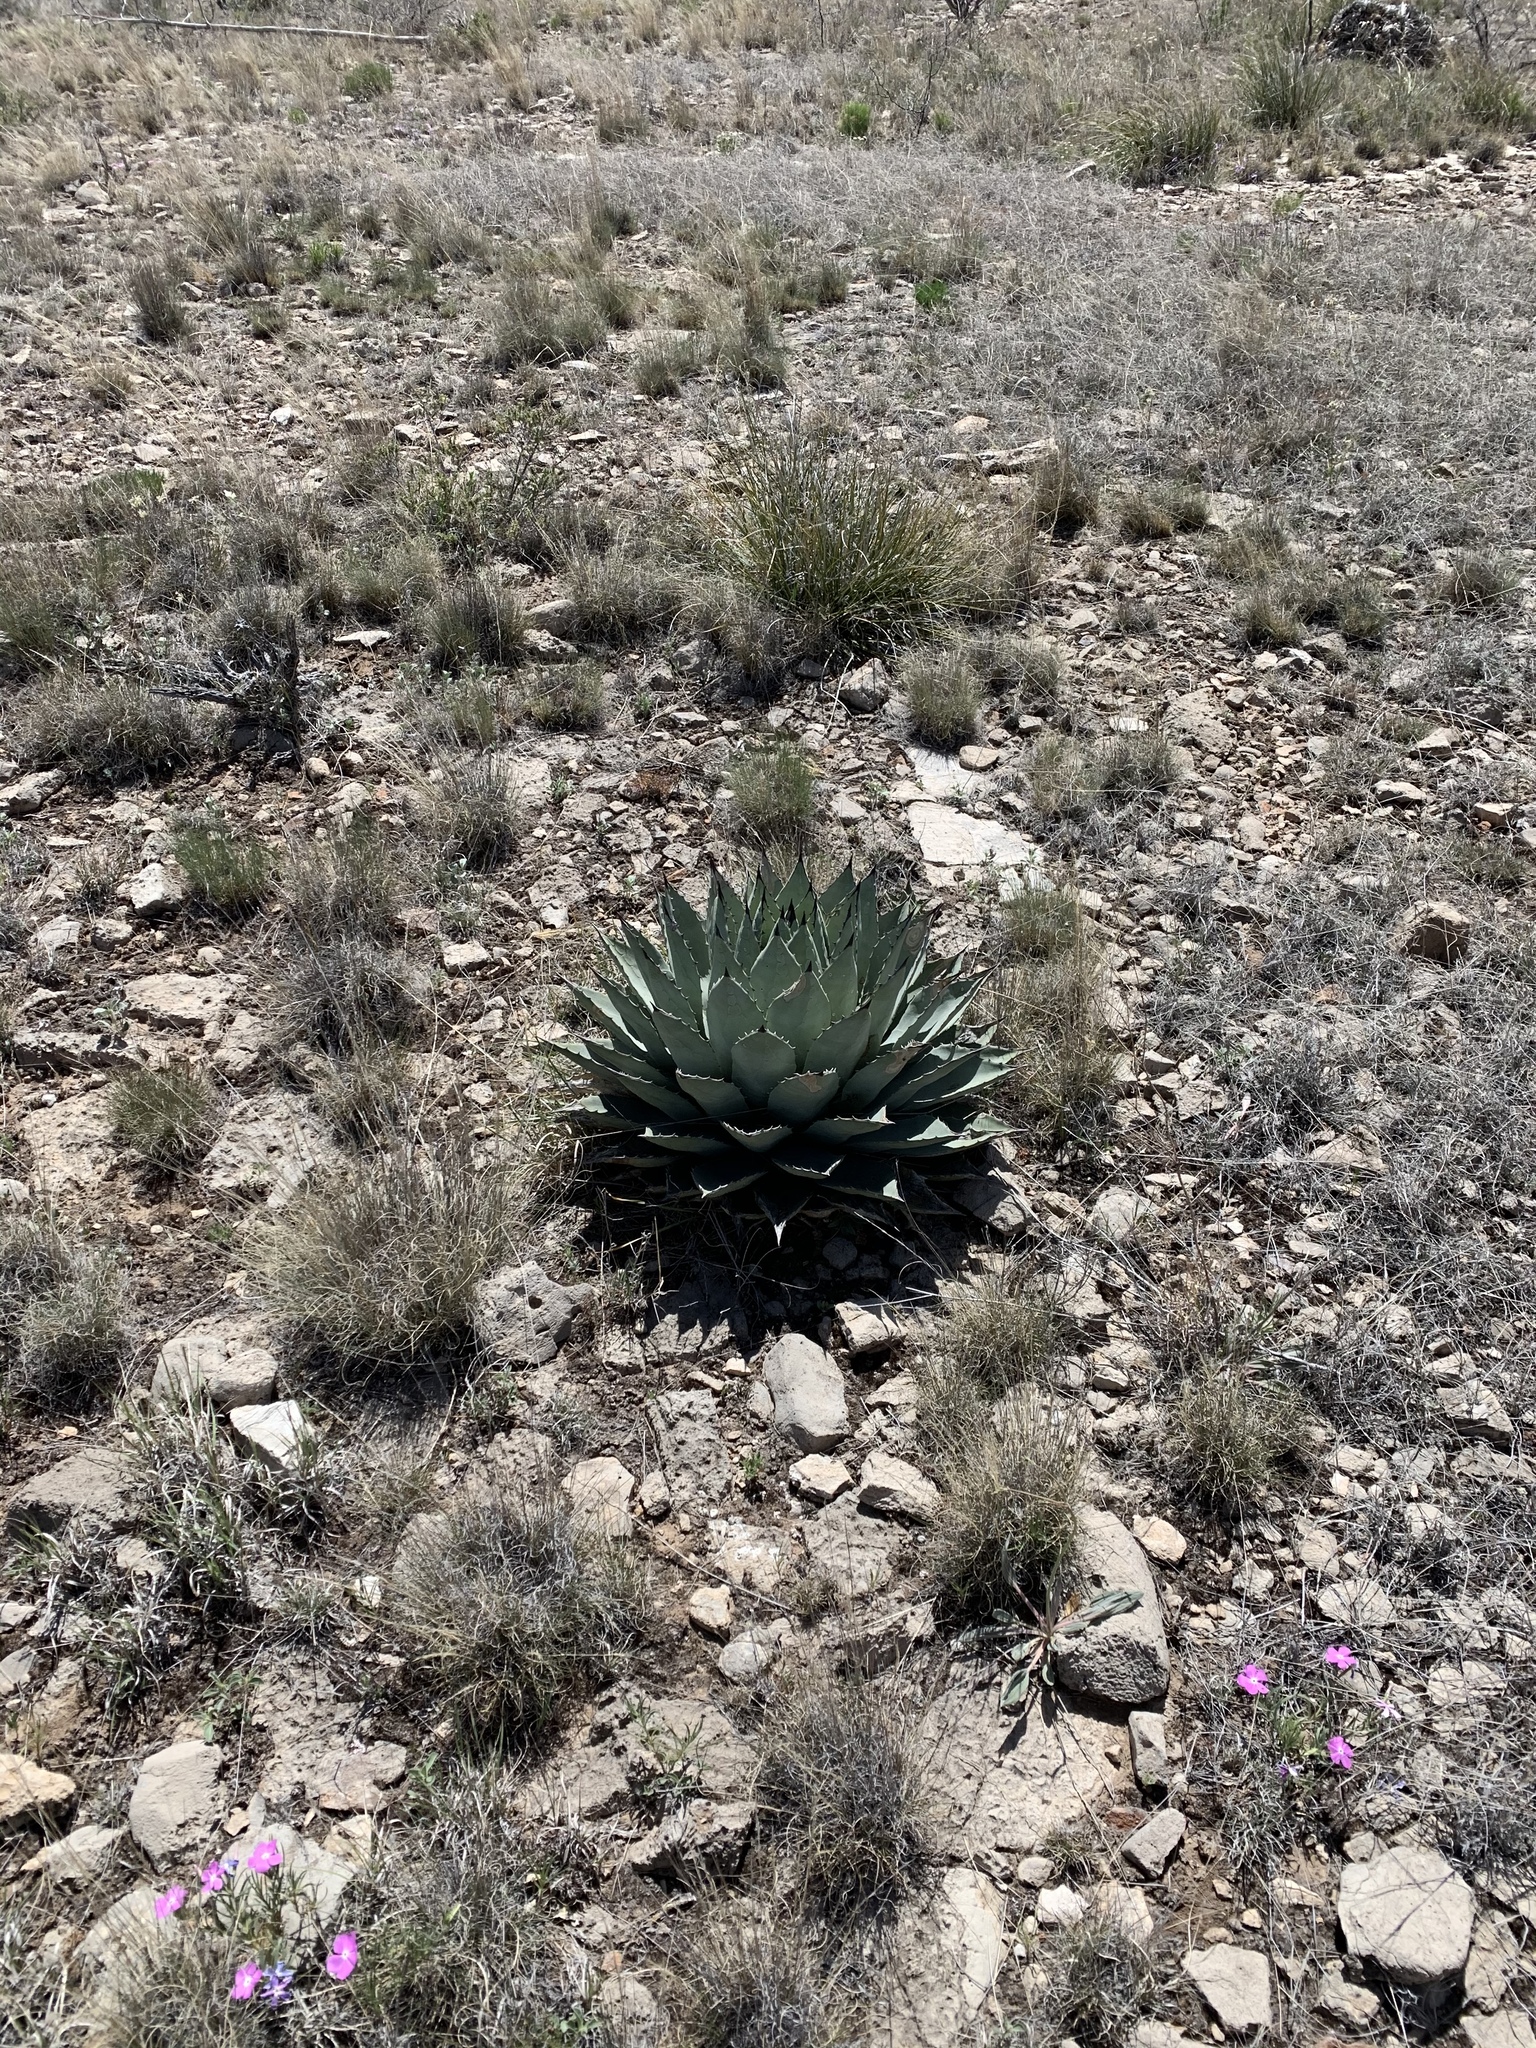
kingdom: Plantae
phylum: Tracheophyta
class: Liliopsida
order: Asparagales
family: Asparagaceae
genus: Agave
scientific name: Agave parryi
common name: Parry's agave
